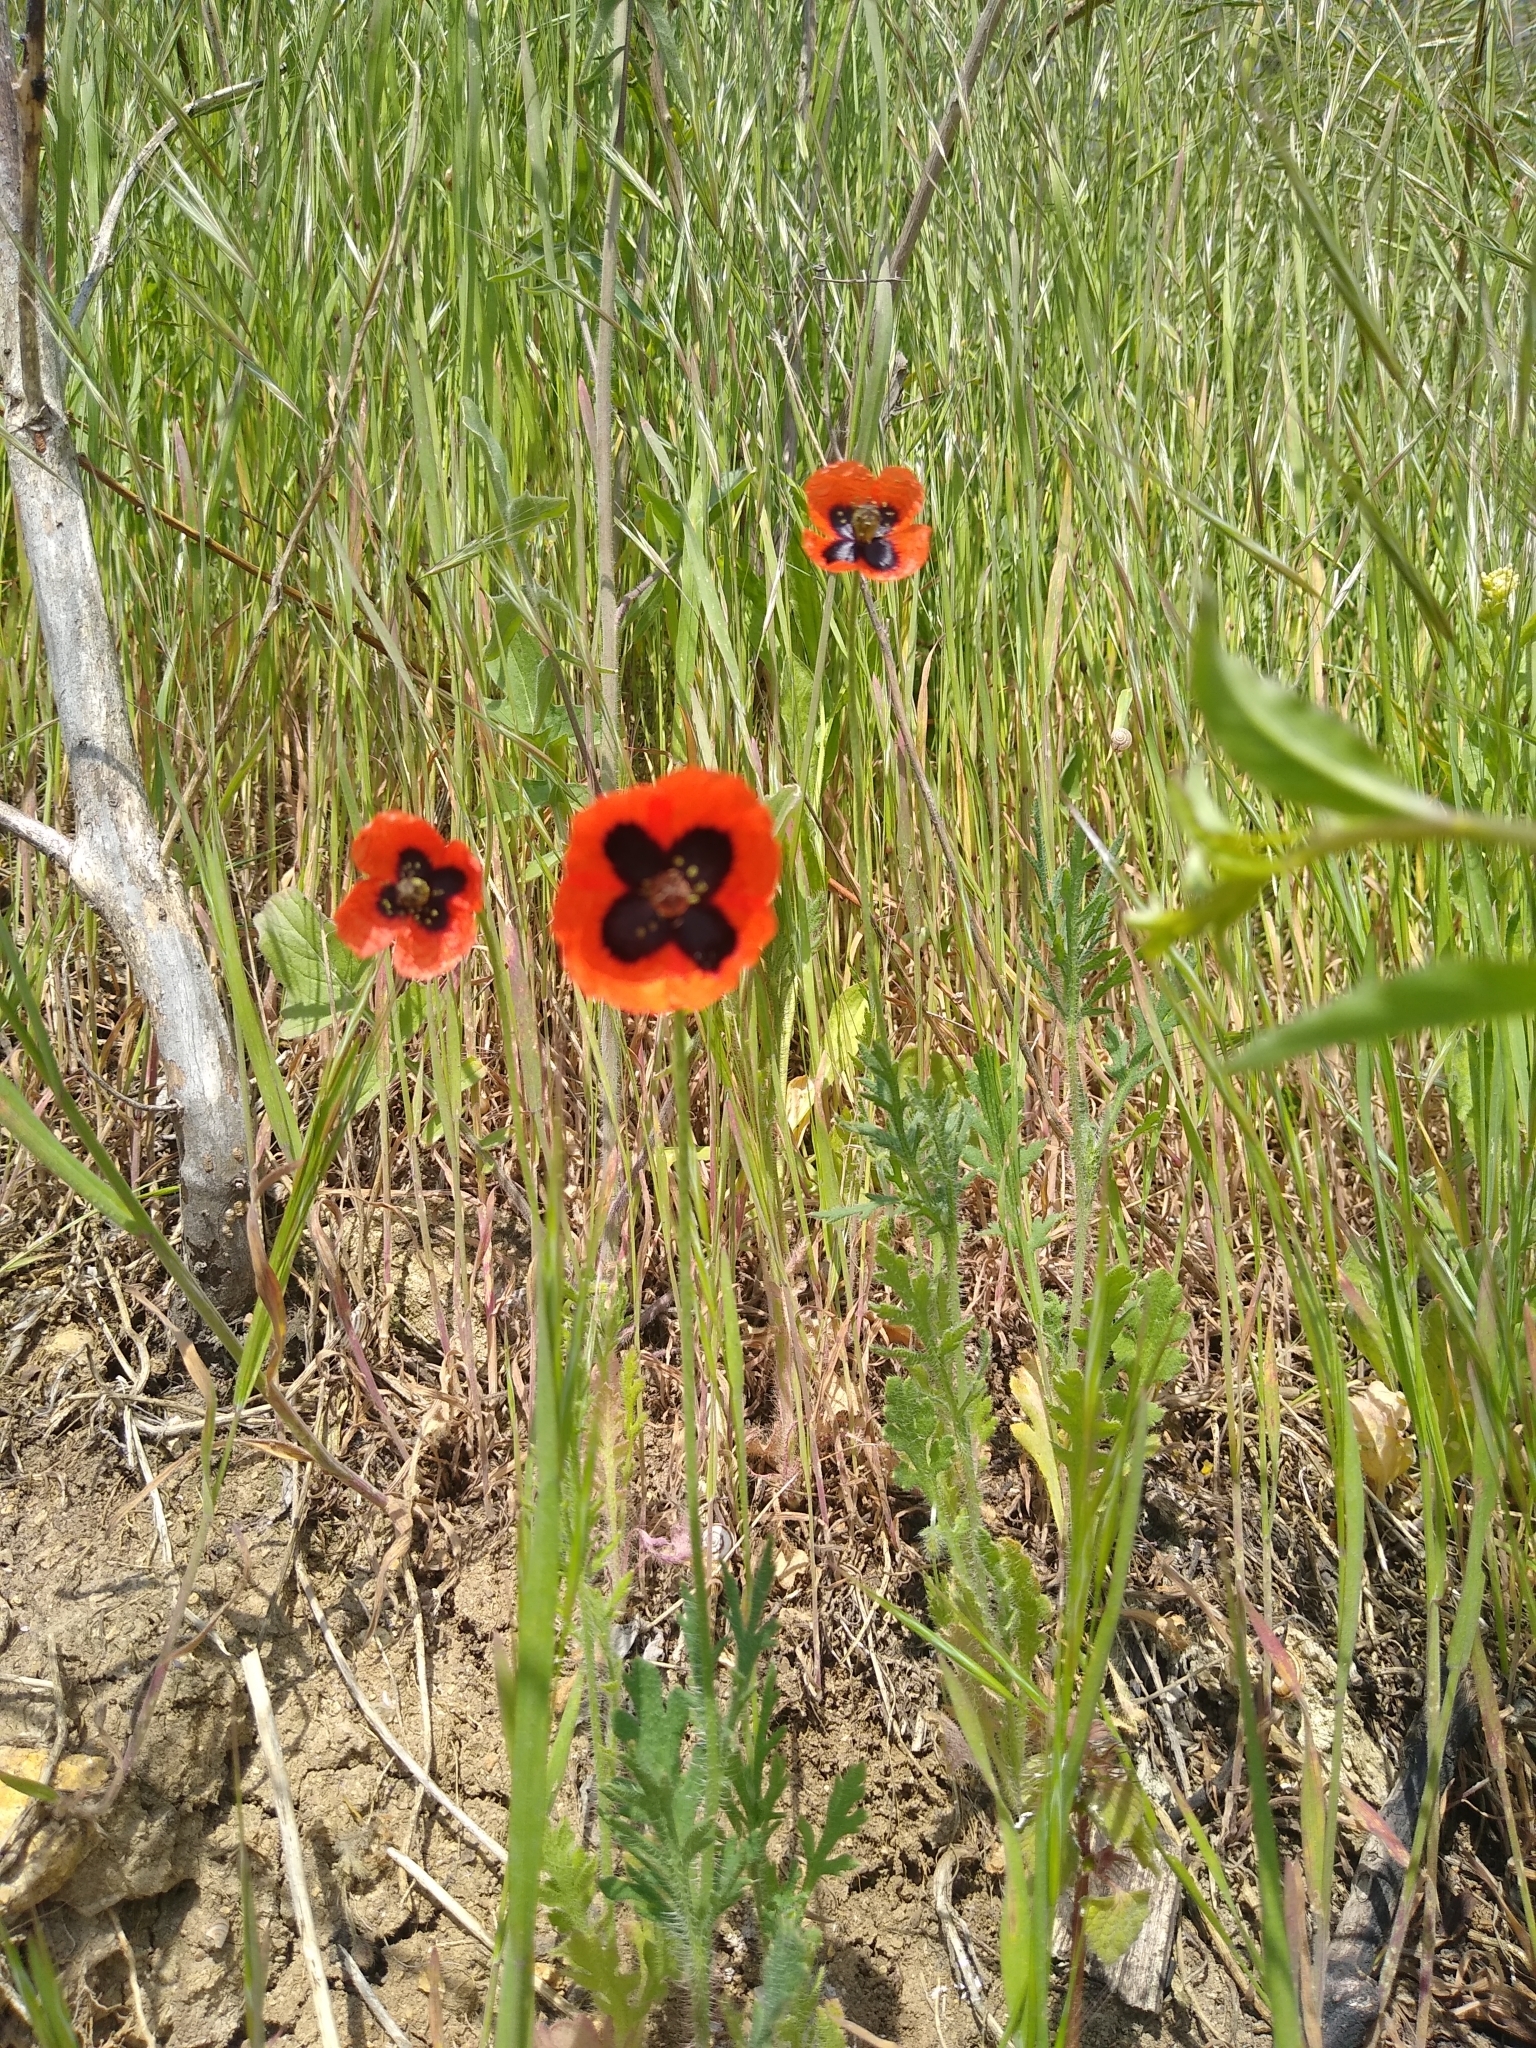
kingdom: Plantae
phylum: Tracheophyta
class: Magnoliopsida
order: Ranunculales
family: Papaveraceae
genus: Papaver
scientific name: Papaver dubium
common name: Long-headed poppy
